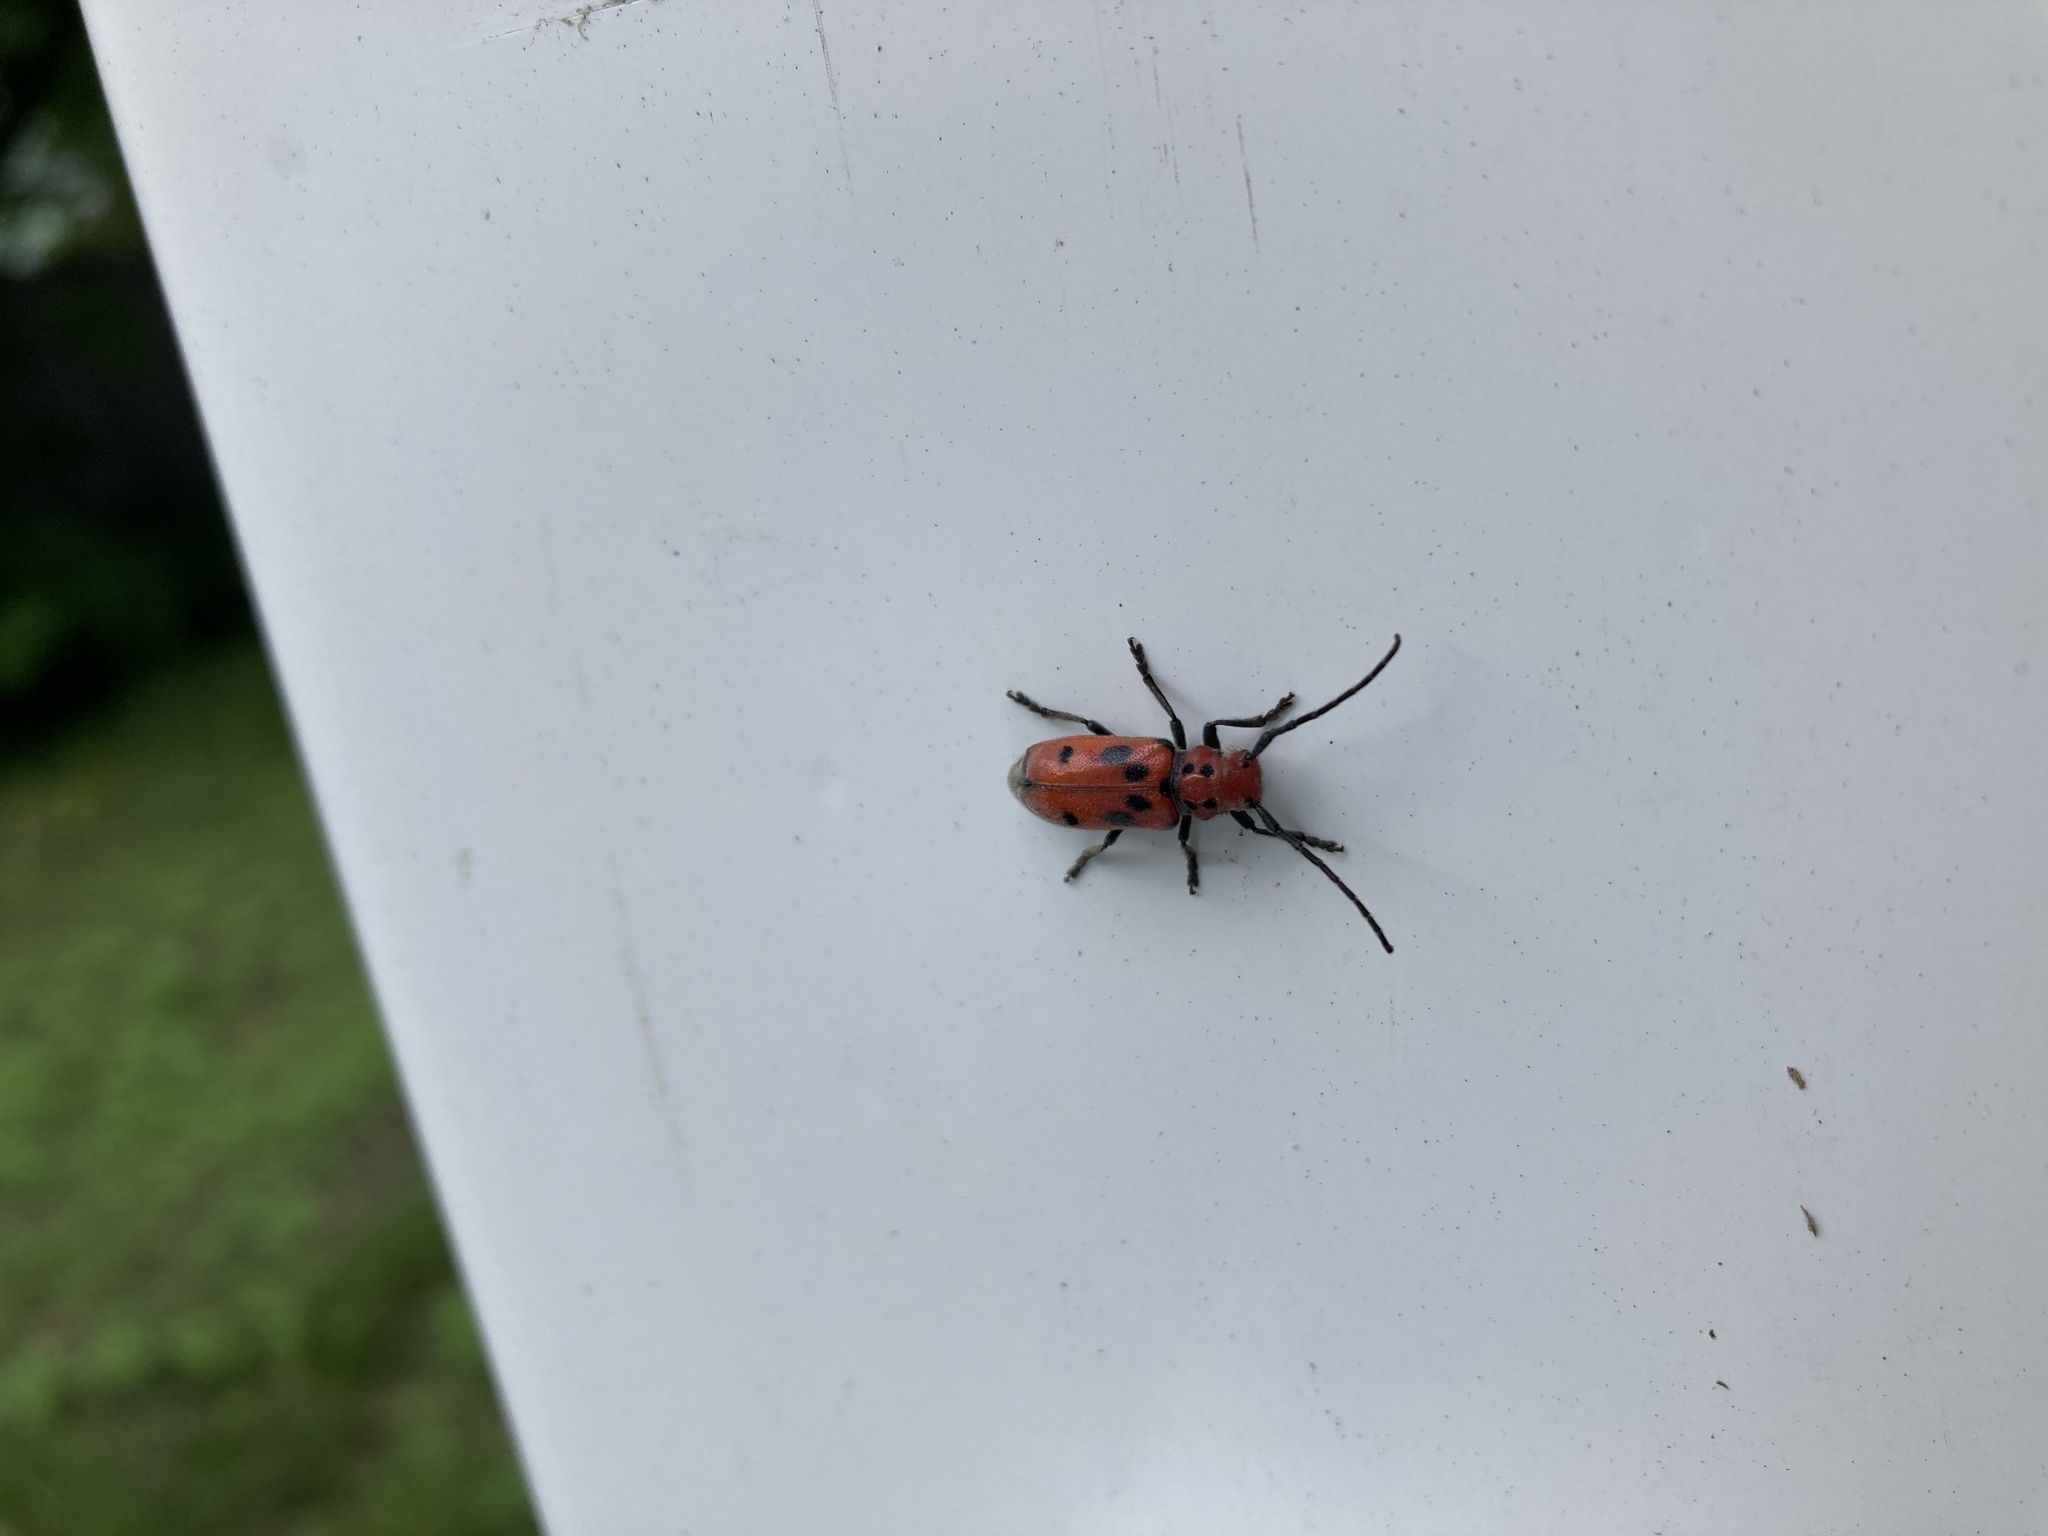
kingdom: Animalia
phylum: Arthropoda
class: Insecta
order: Coleoptera
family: Cerambycidae
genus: Tetraopes
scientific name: Tetraopes tetrophthalmus
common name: Red milkweed beetle
